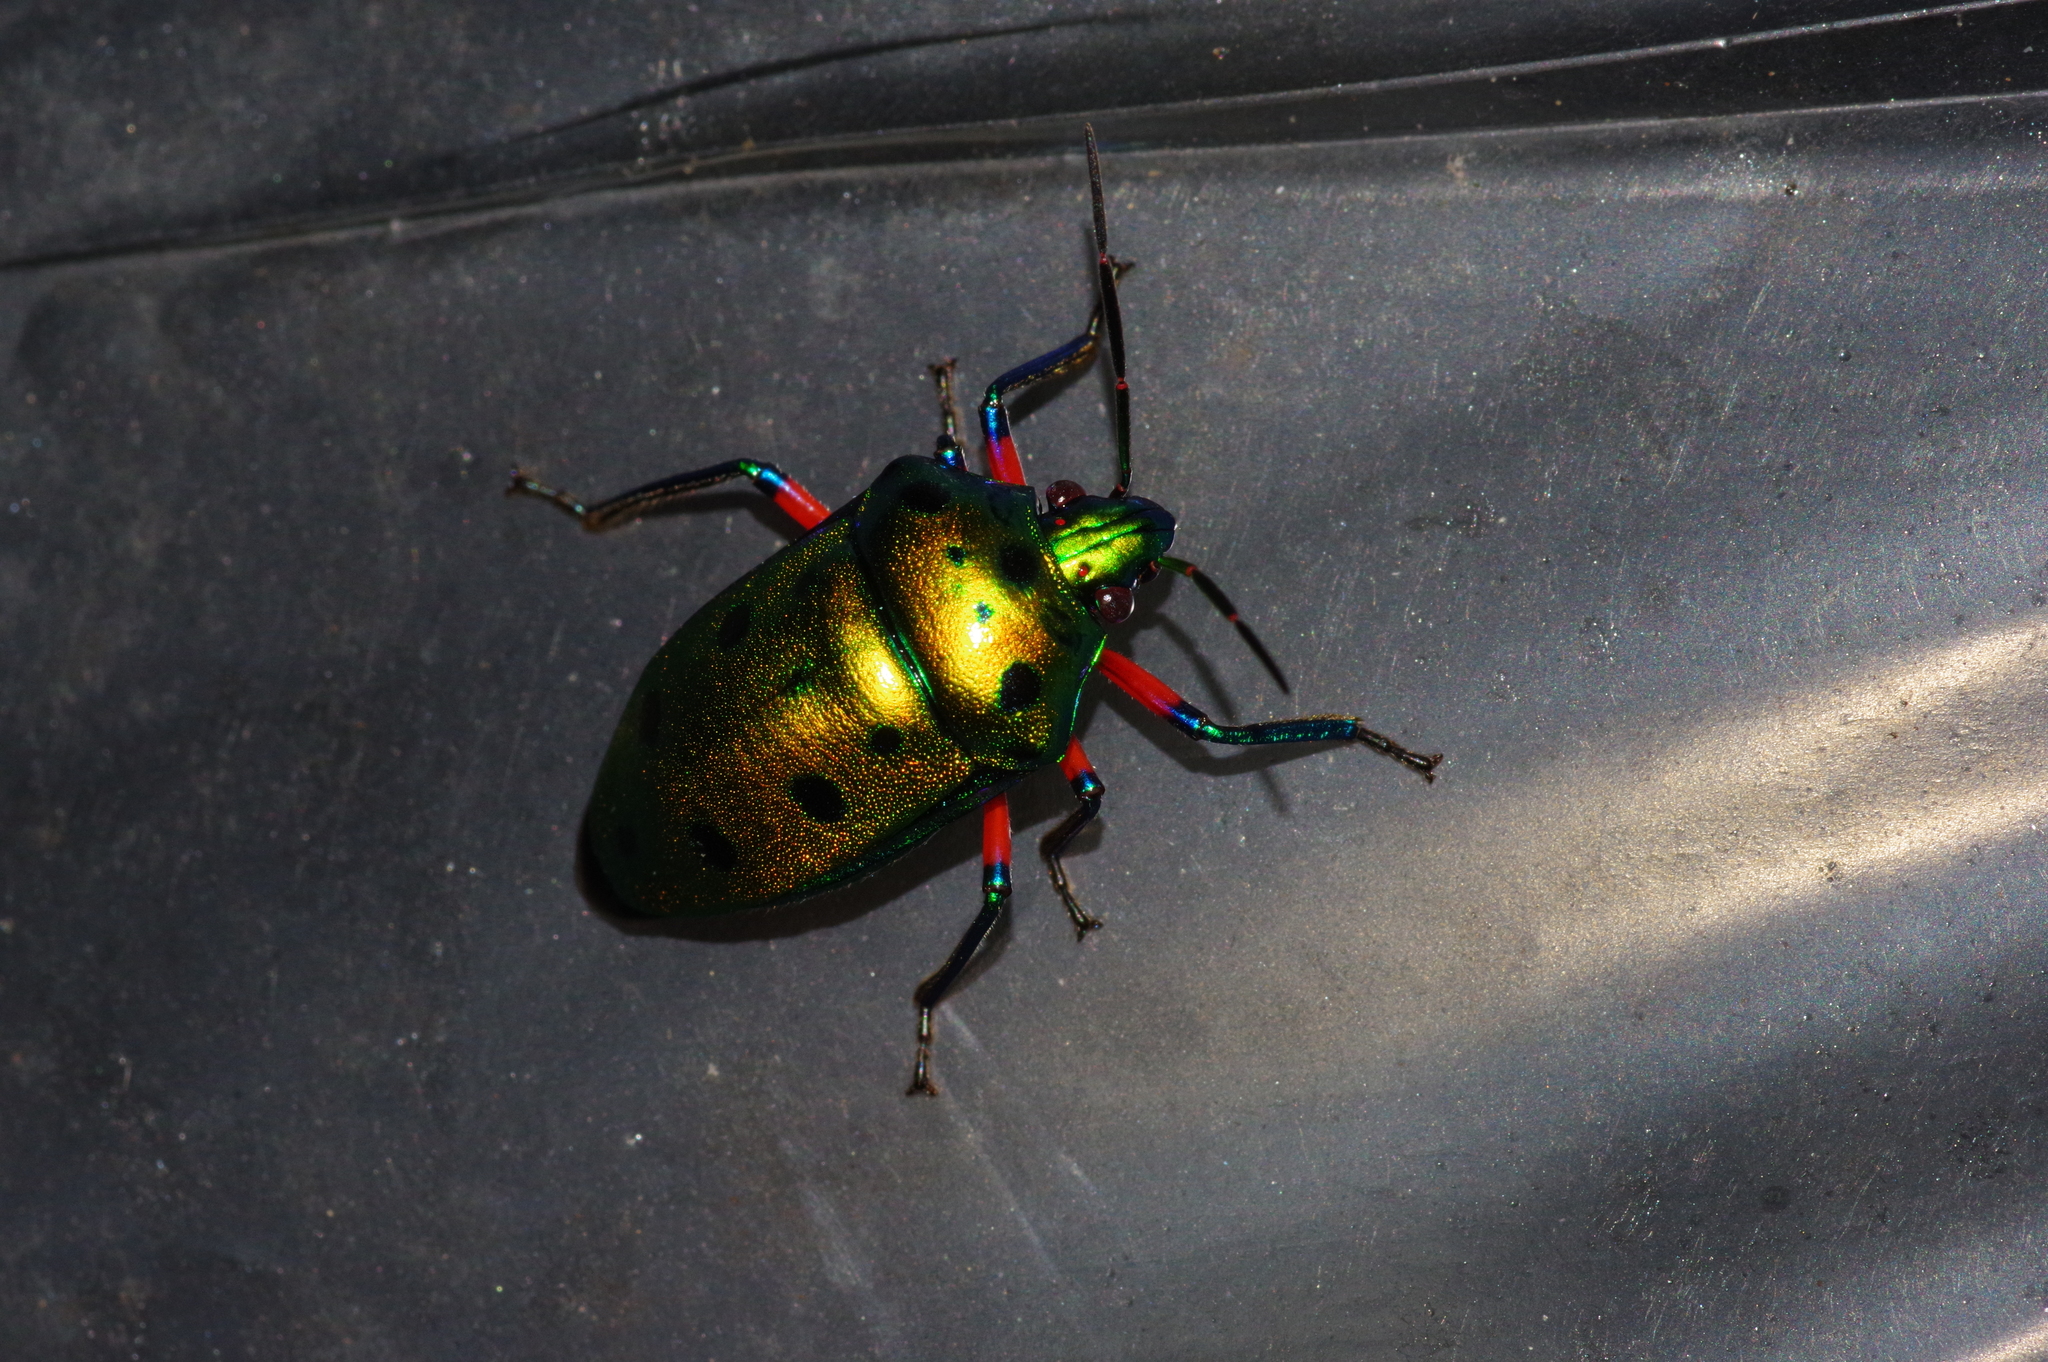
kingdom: Animalia
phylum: Arthropoda
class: Insecta
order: Hemiptera
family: Scutelleridae
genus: Calliphara
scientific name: Calliphara excellens
